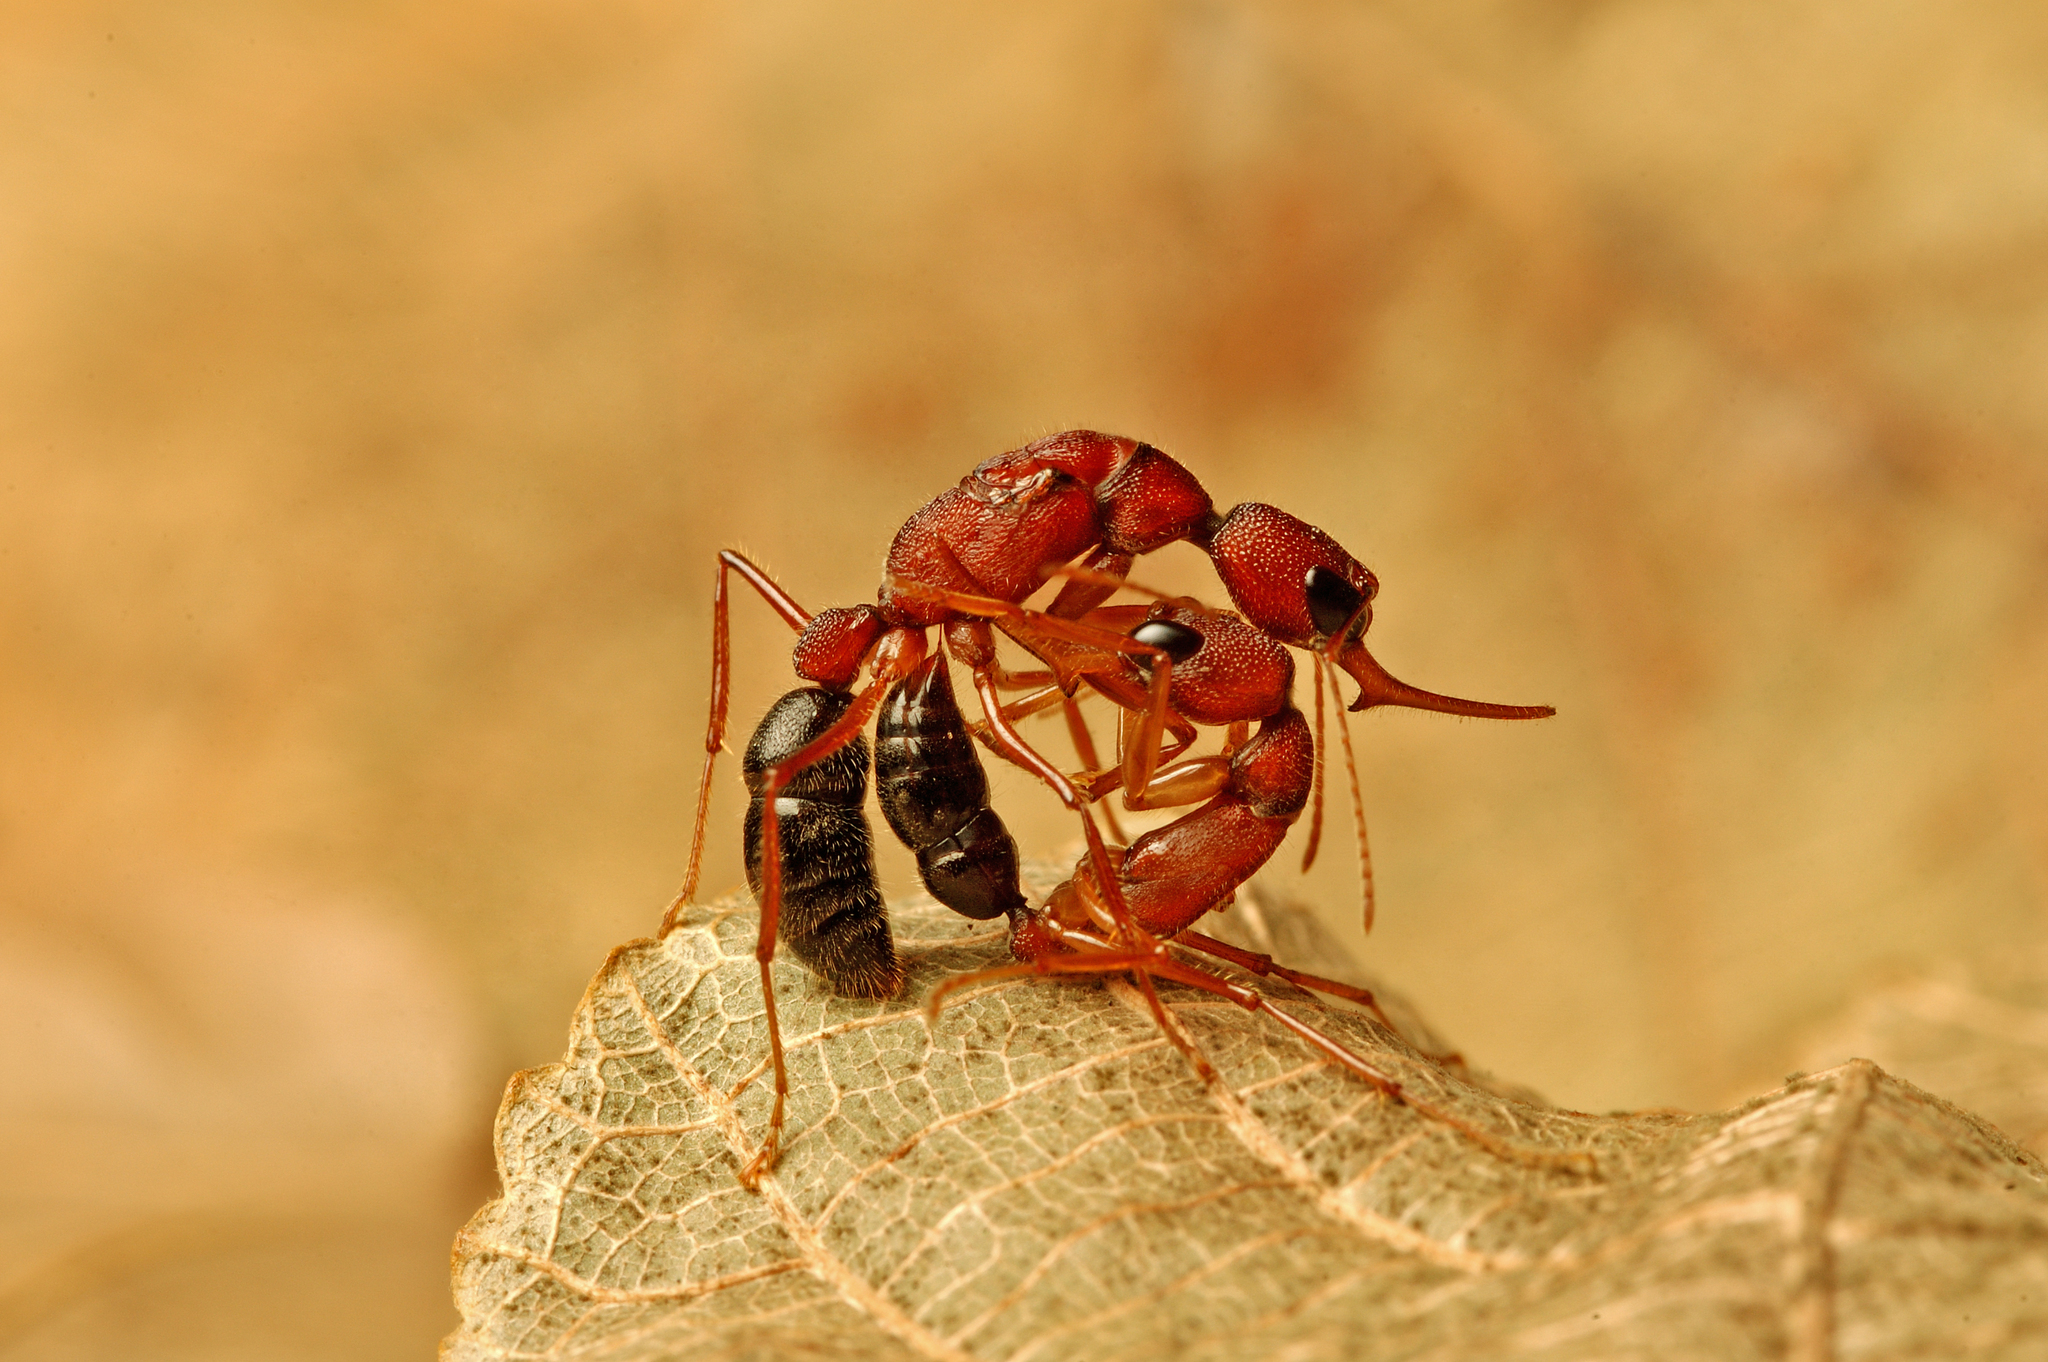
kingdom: Animalia
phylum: Arthropoda
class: Insecta
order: Hymenoptera
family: Formicidae
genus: Harpegnathos
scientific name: Harpegnathos saltator
